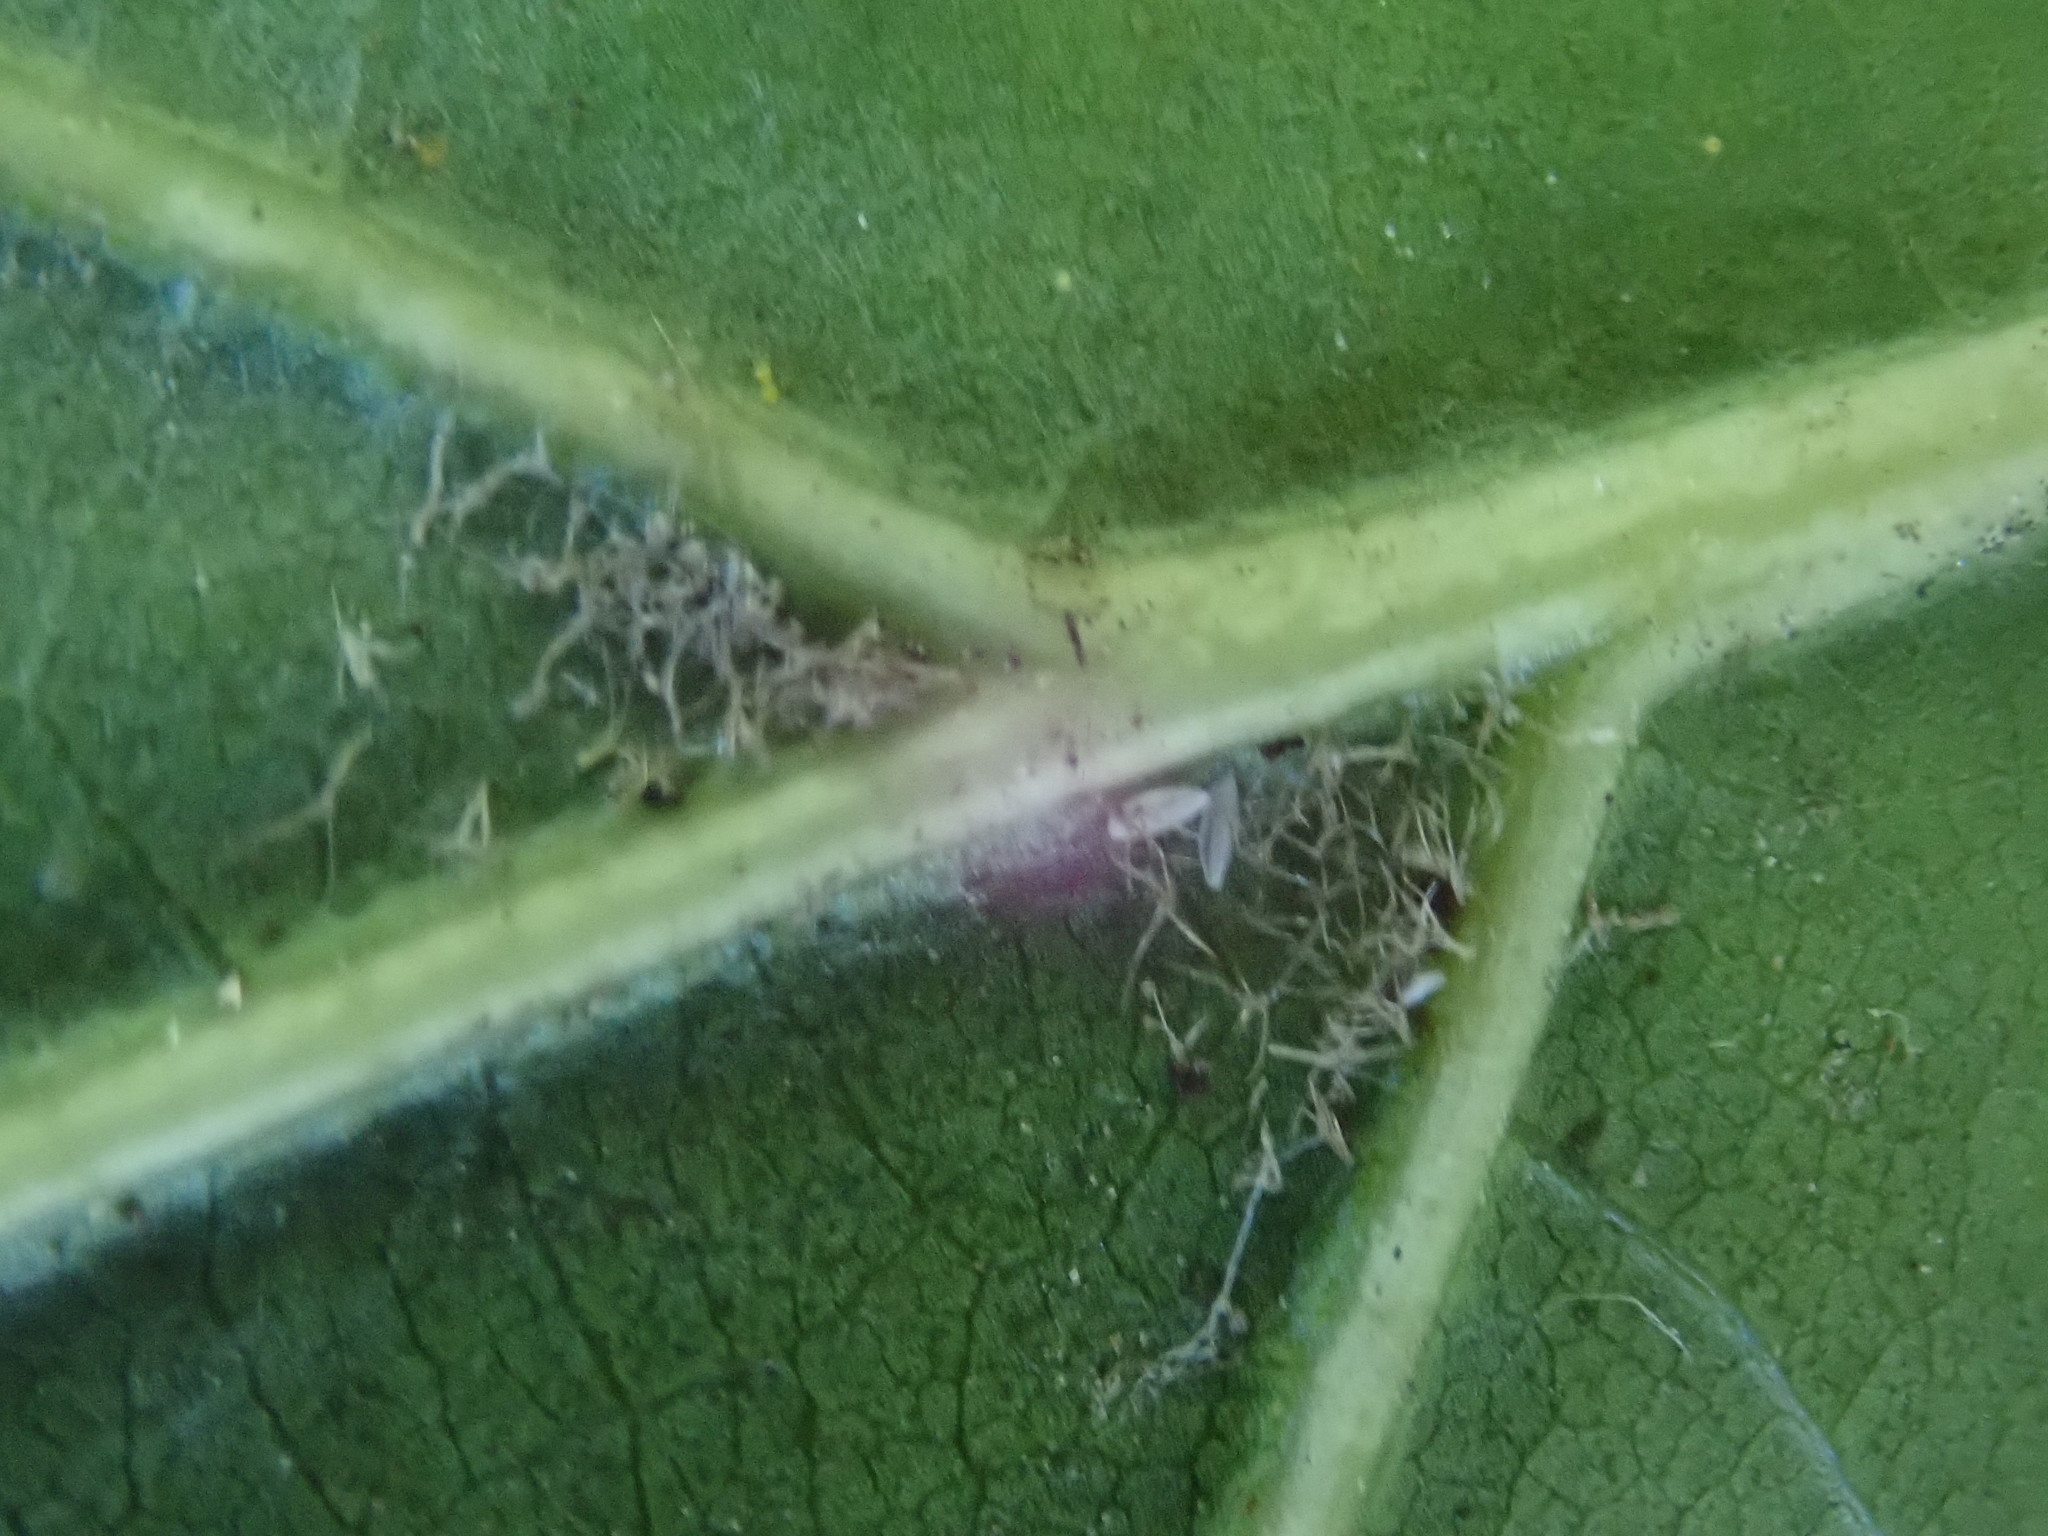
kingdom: Plantae
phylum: Tracheophyta
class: Magnoliopsida
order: Fagales
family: Fagaceae
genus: Quercus
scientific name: Quercus velutina
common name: Black oak
